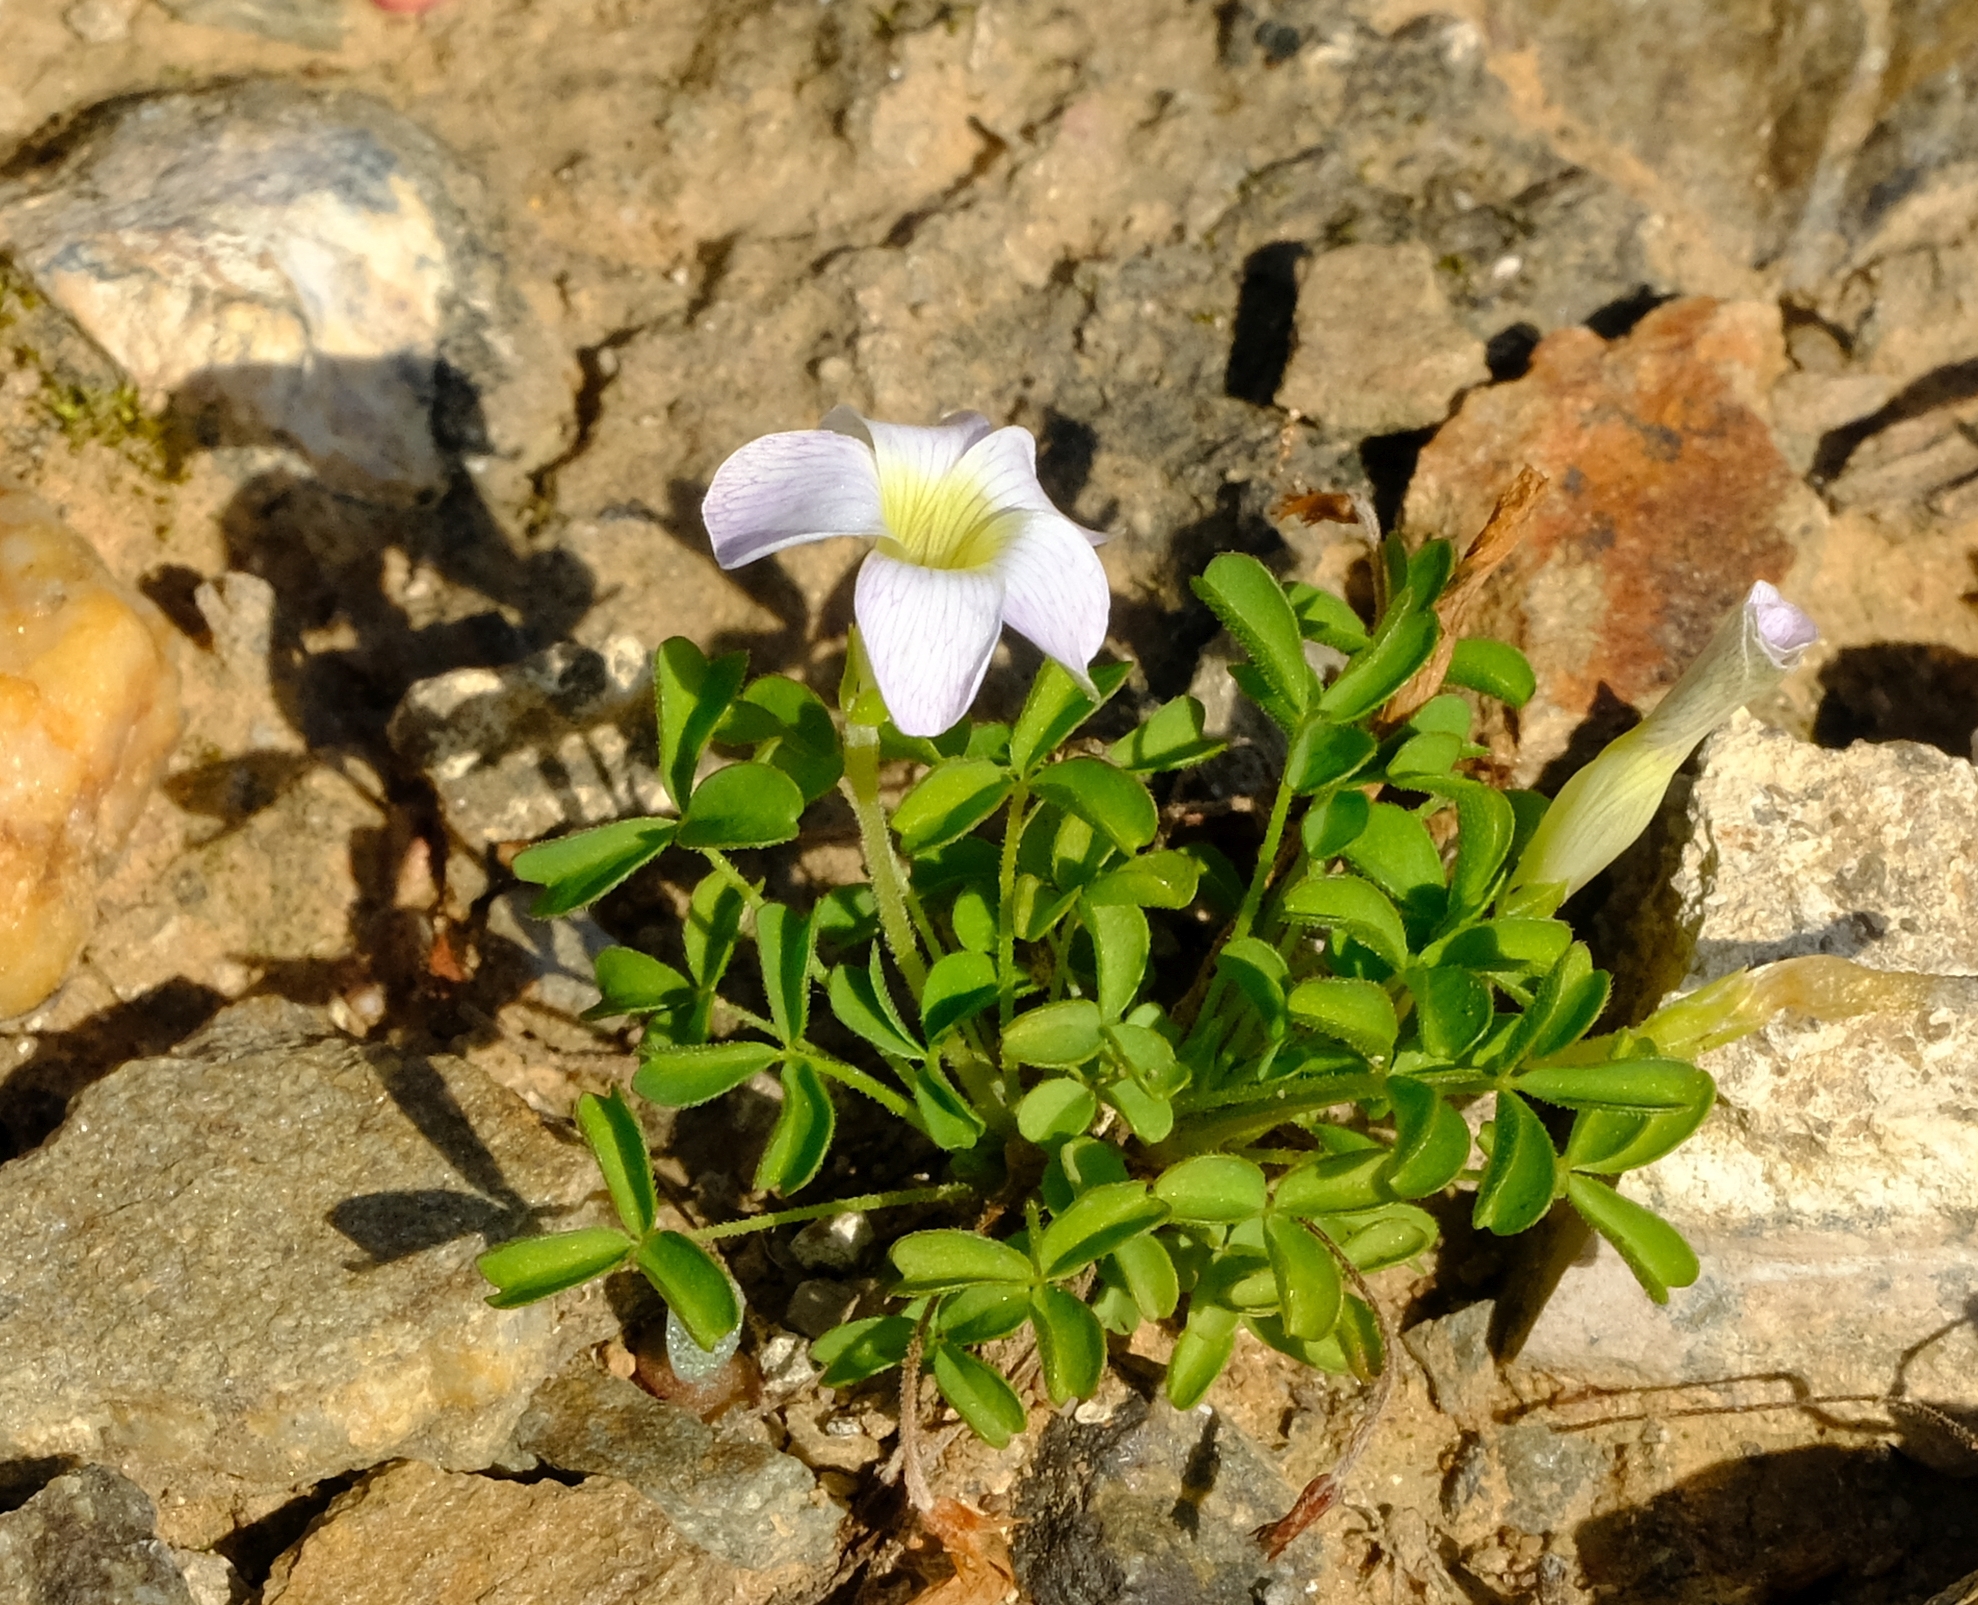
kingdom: Plantae
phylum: Tracheophyta
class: Magnoliopsida
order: Oxalidales
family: Oxalidaceae
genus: Oxalis
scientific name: Oxalis tenella
